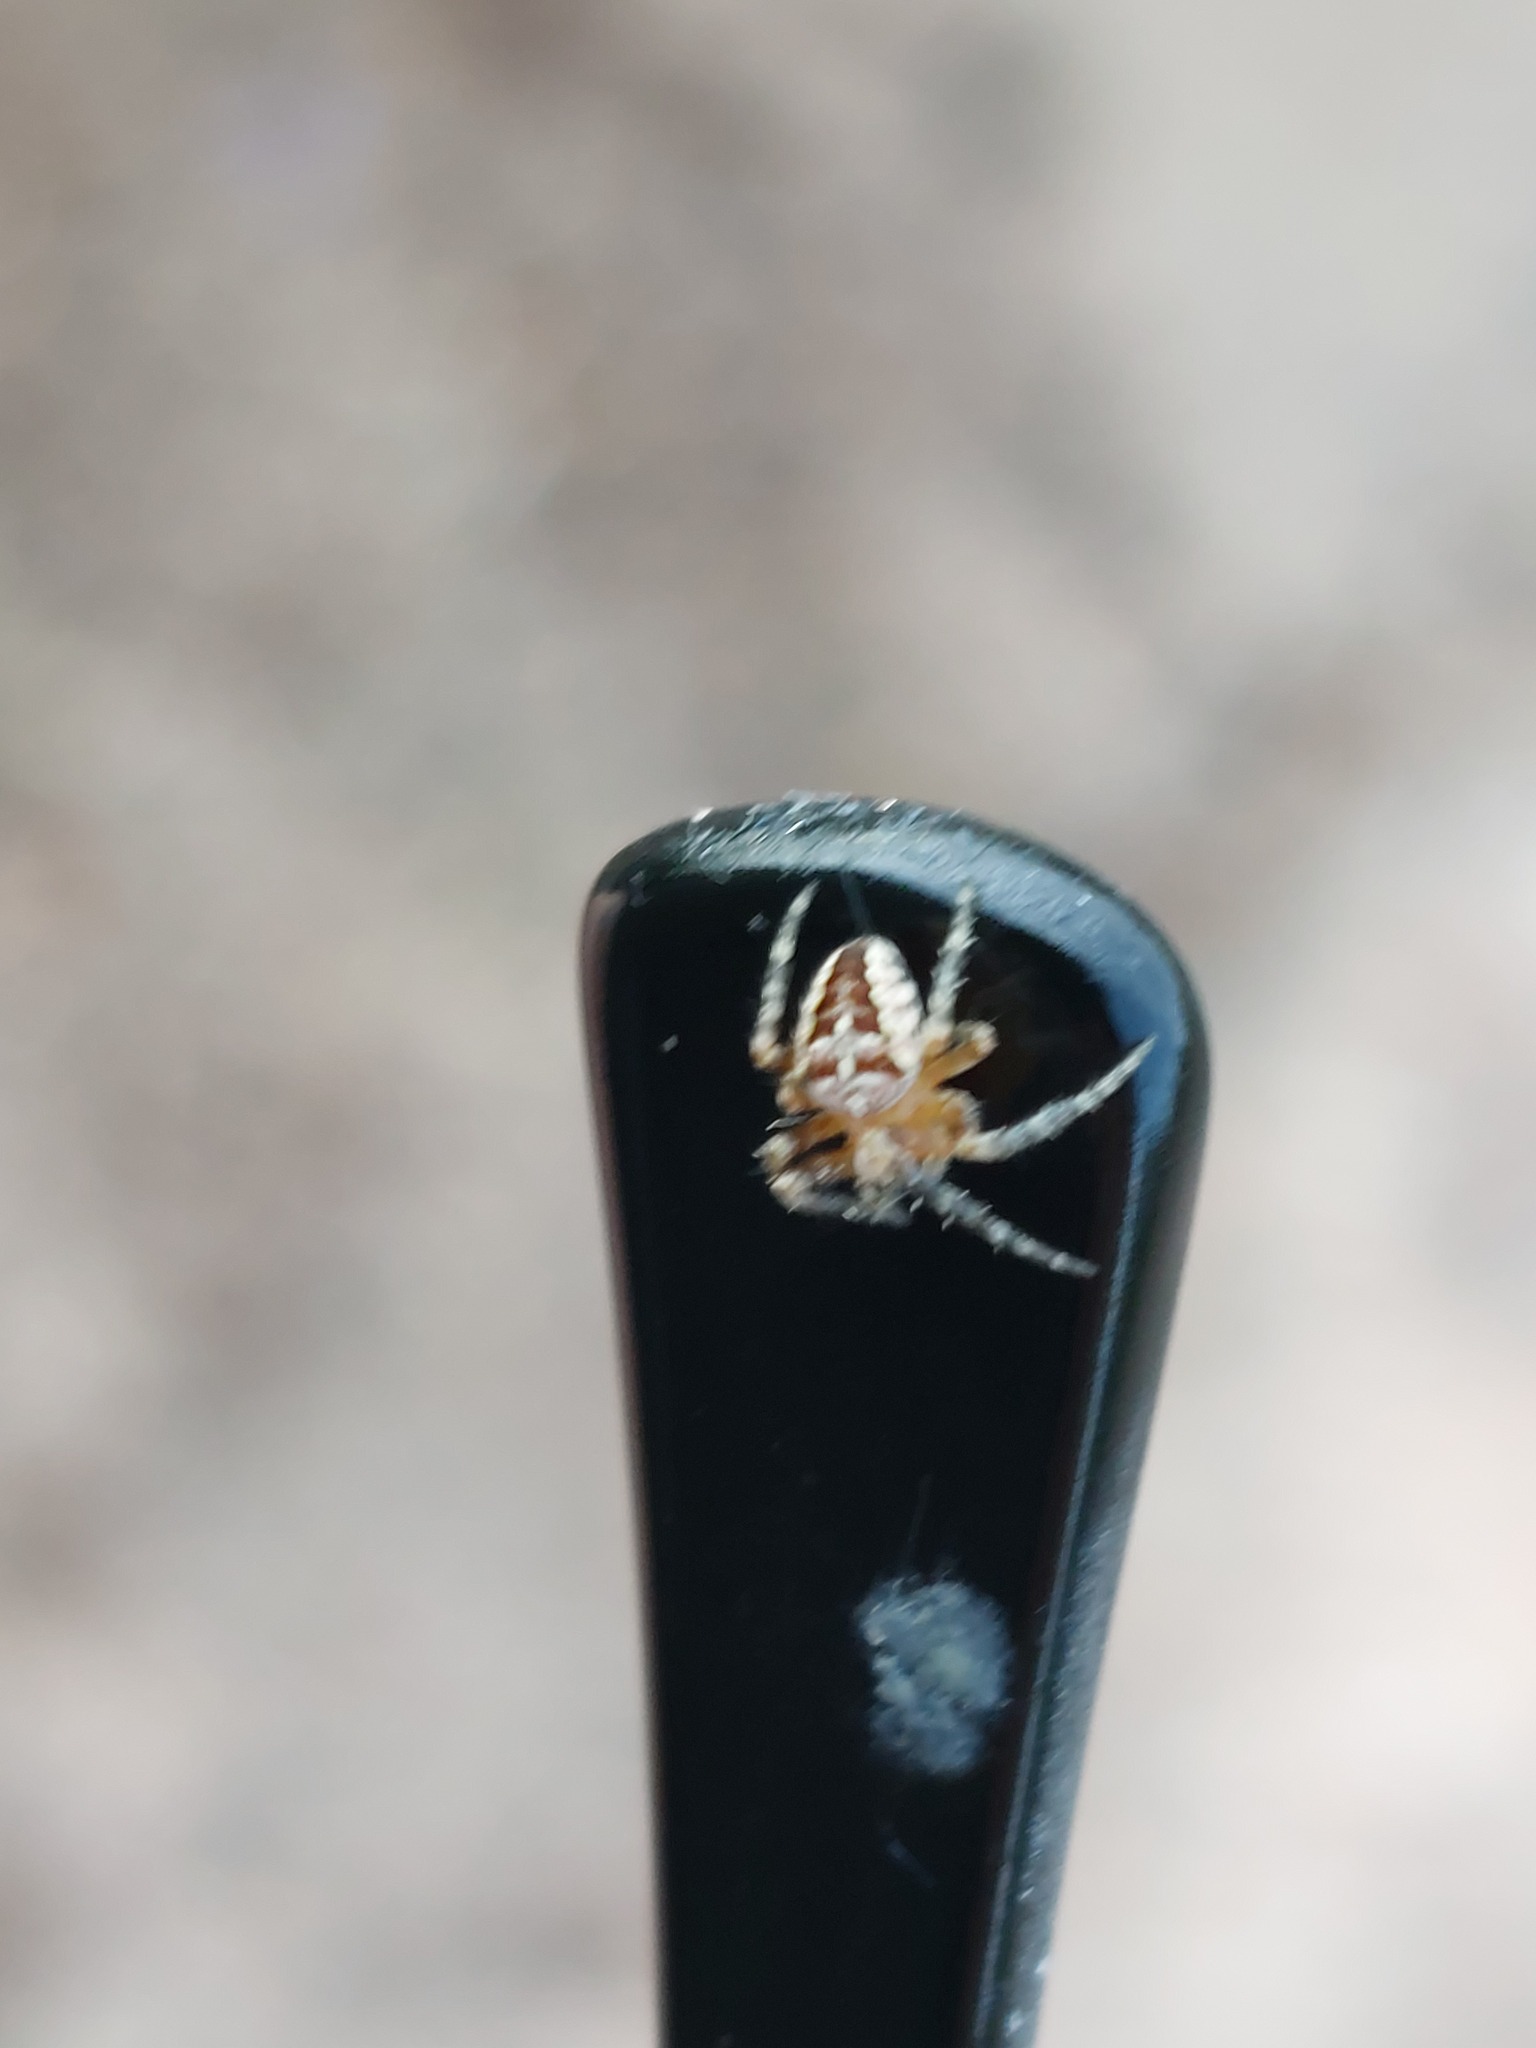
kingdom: Animalia
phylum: Arthropoda
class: Arachnida
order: Araneae
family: Araneidae
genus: Araneus
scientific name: Araneus diadematus
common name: Cross orbweaver
